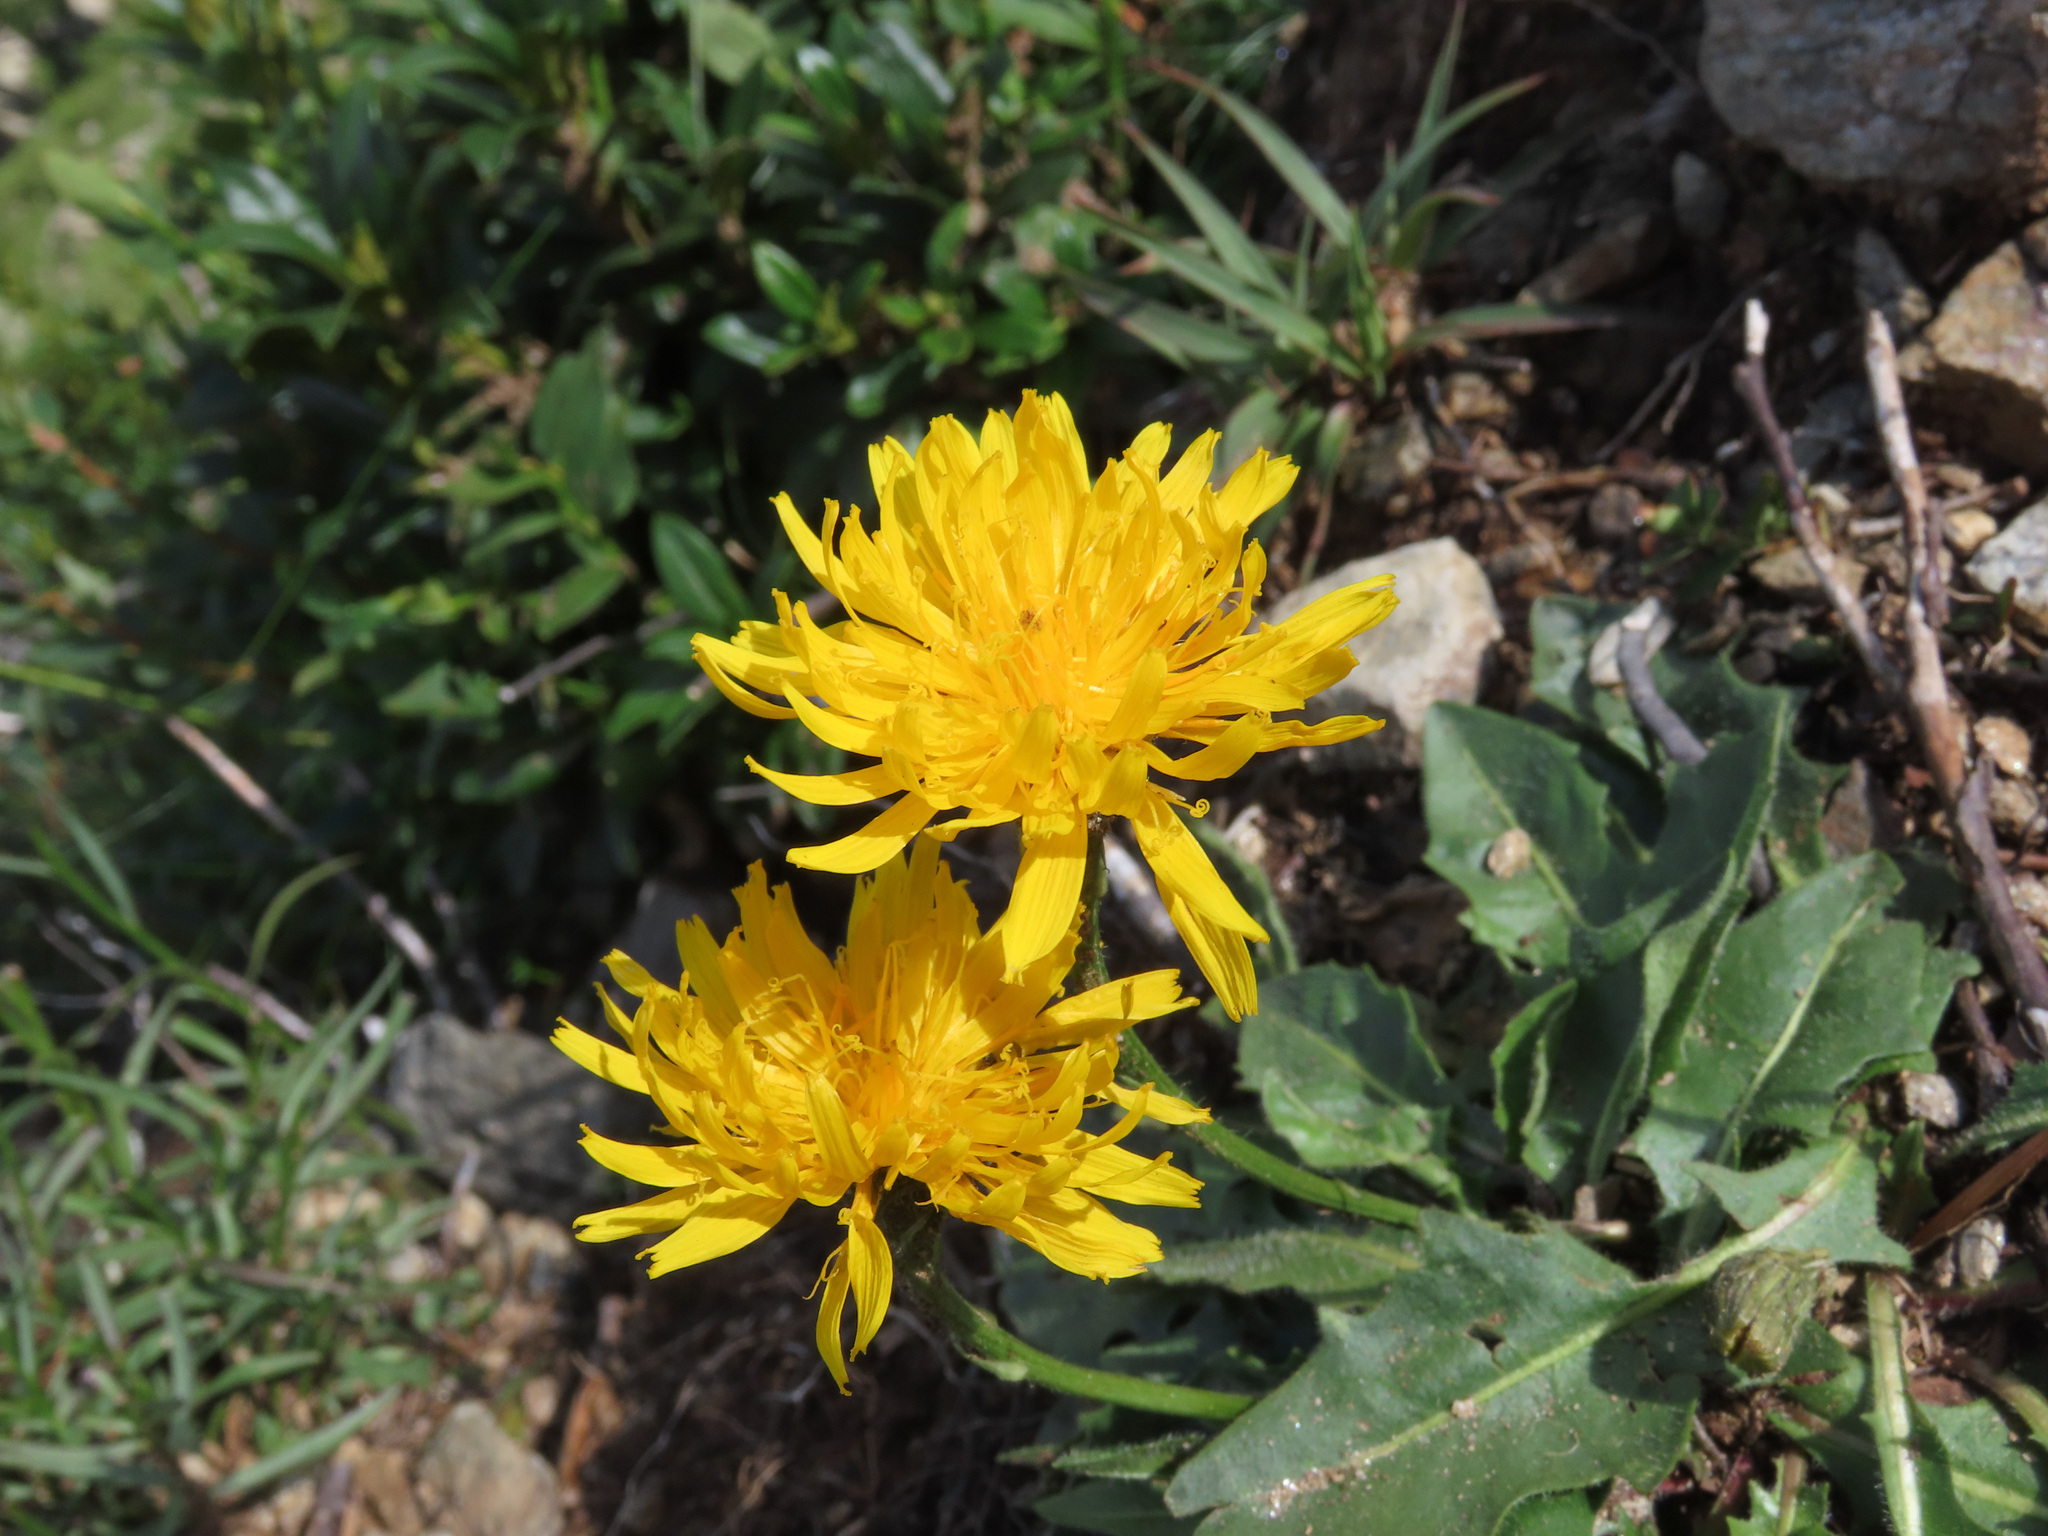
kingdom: Plantae
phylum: Tracheophyta
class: Magnoliopsida
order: Asterales
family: Asteraceae
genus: Scorzoneroides
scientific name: Scorzoneroides helvetica
